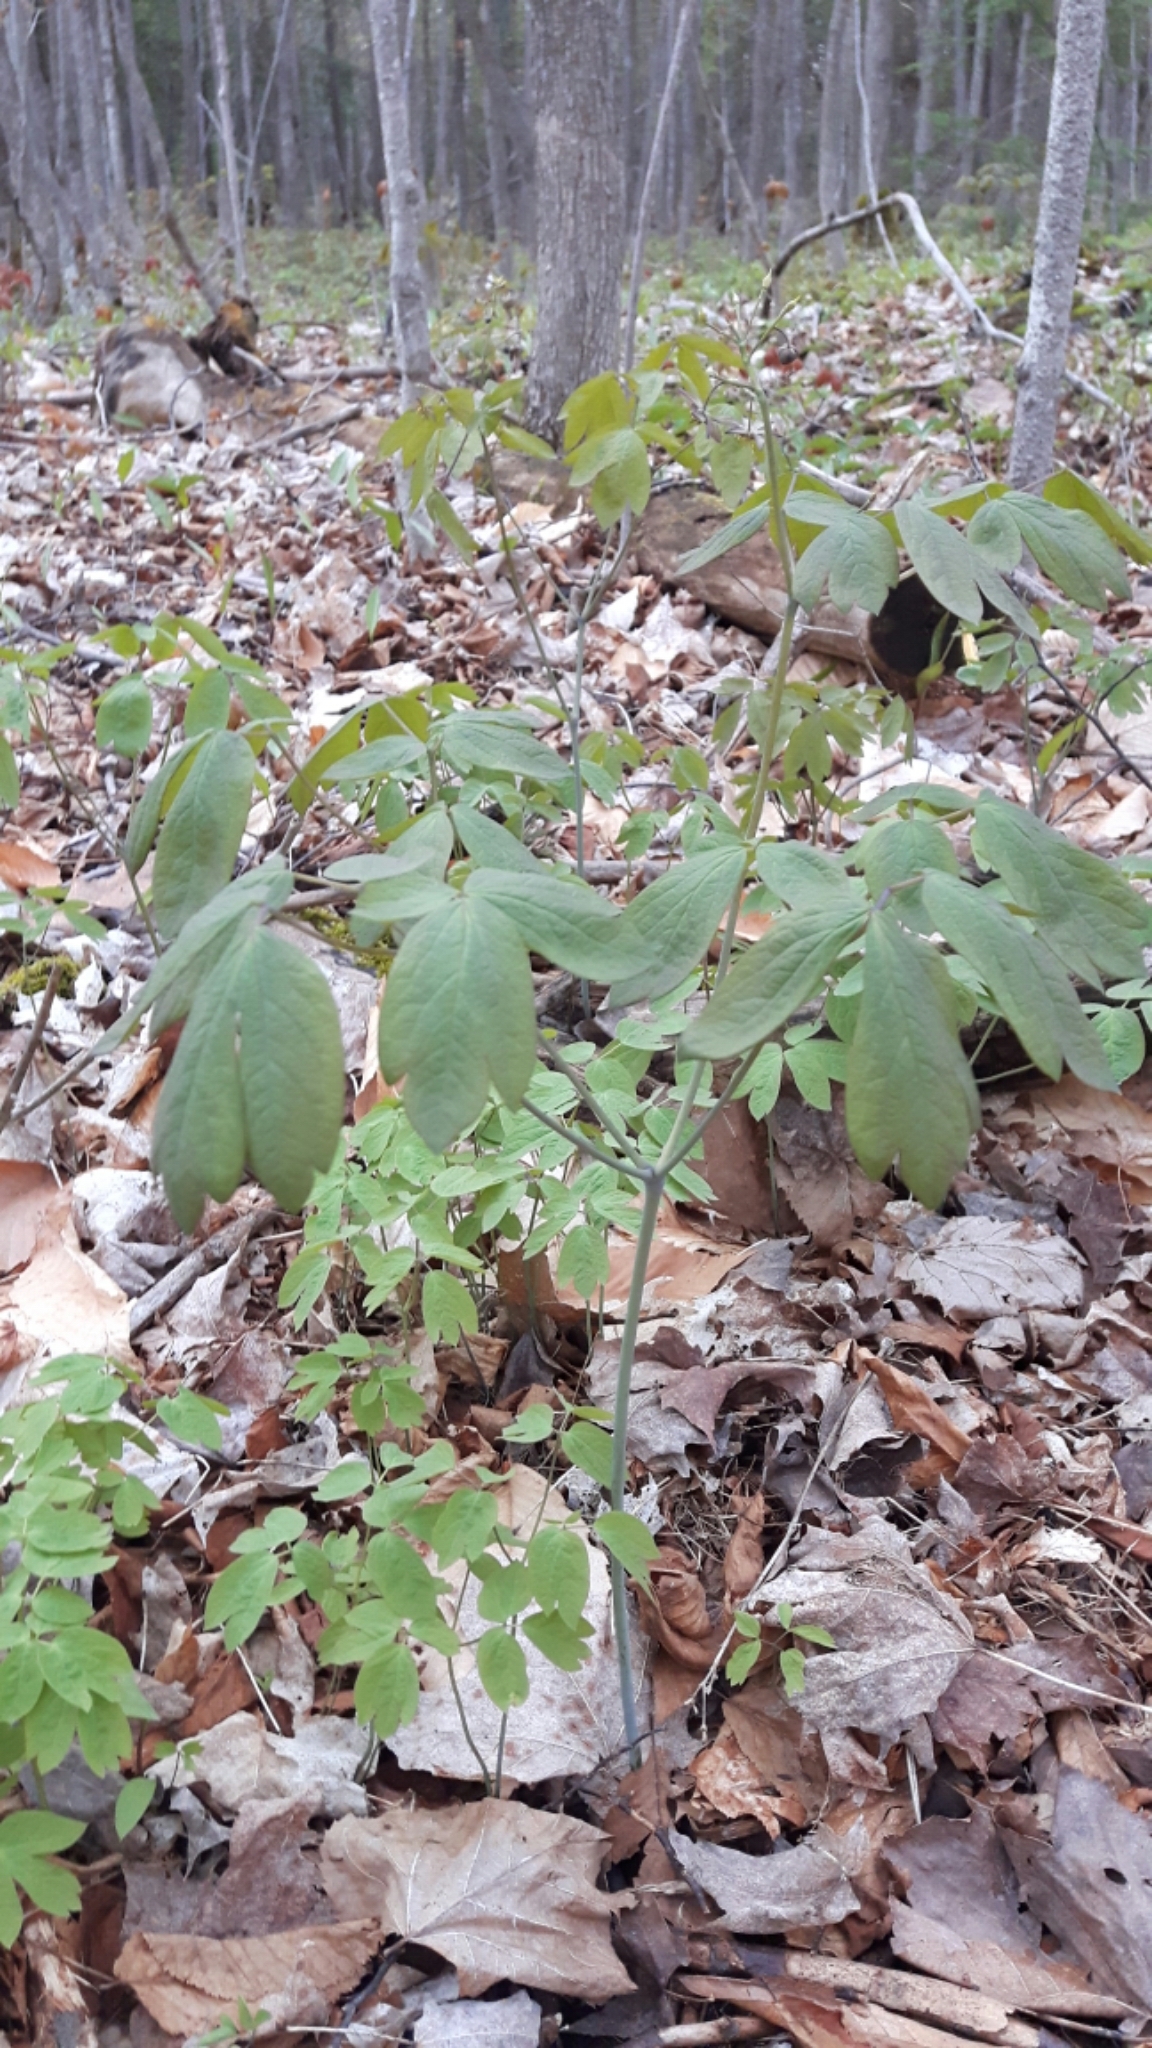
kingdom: Plantae
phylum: Tracheophyta
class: Magnoliopsida
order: Ranunculales
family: Berberidaceae
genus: Caulophyllum
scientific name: Caulophyllum giganteum
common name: Blue cohosh
